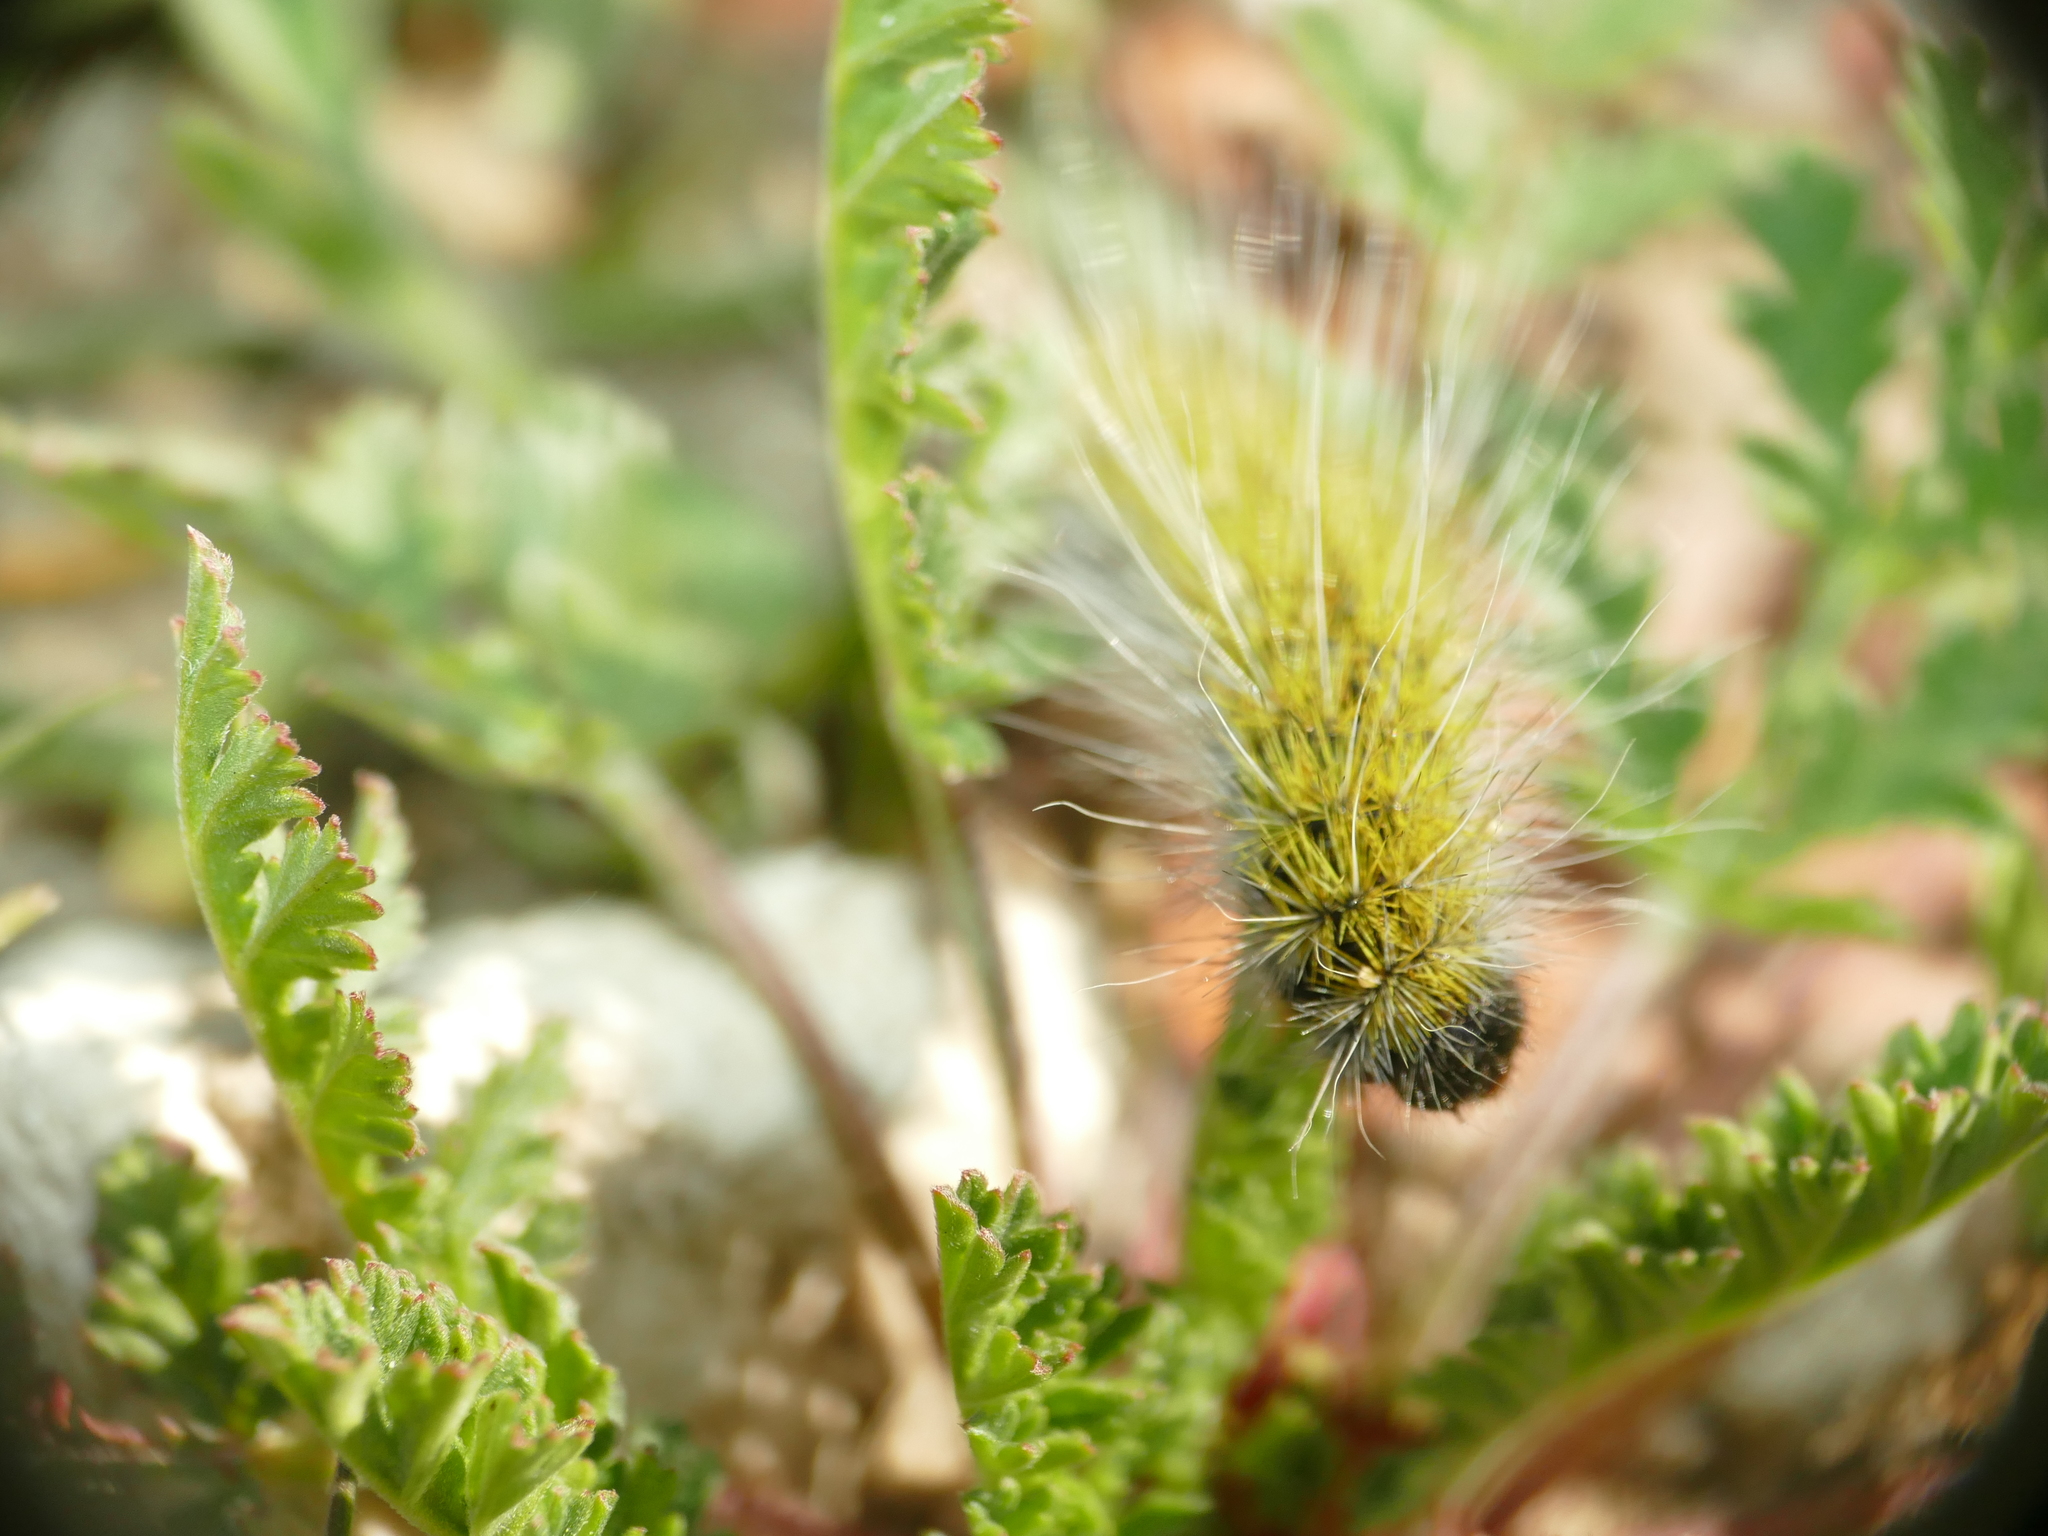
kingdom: Animalia
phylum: Arthropoda
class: Insecta
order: Lepidoptera
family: Notodontidae
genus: Thaumetopoea
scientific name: Thaumetopoea herculeana
